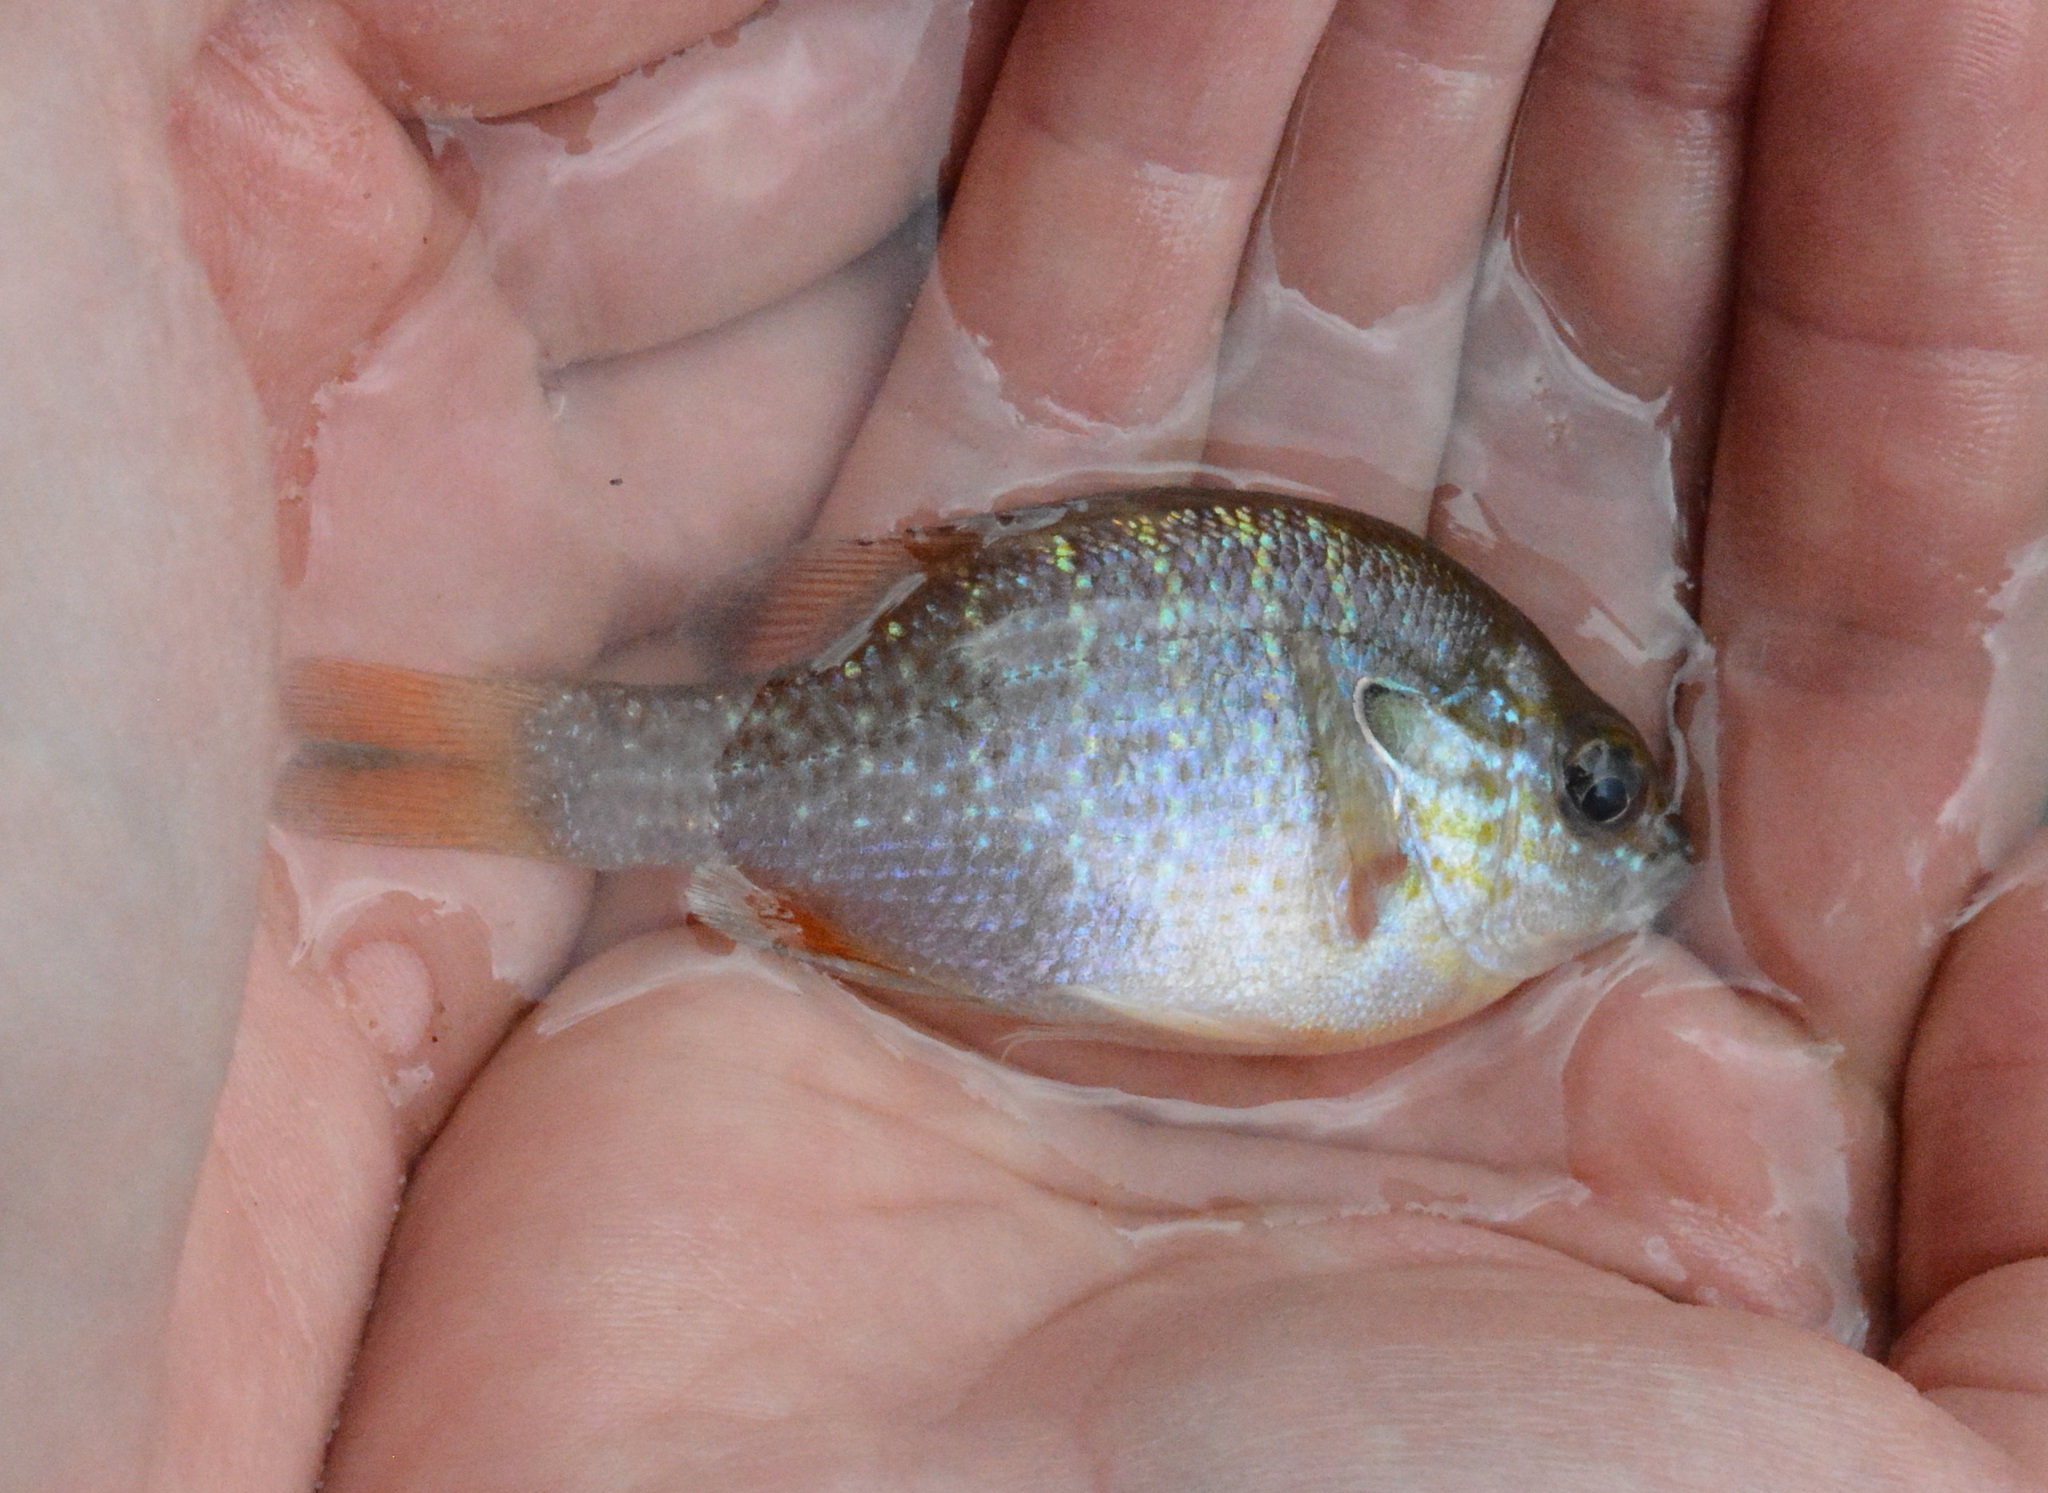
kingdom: Animalia
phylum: Chordata
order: Perciformes
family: Centrarchidae
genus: Lepomis
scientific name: Lepomis megalotis
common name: Longear sunfish
